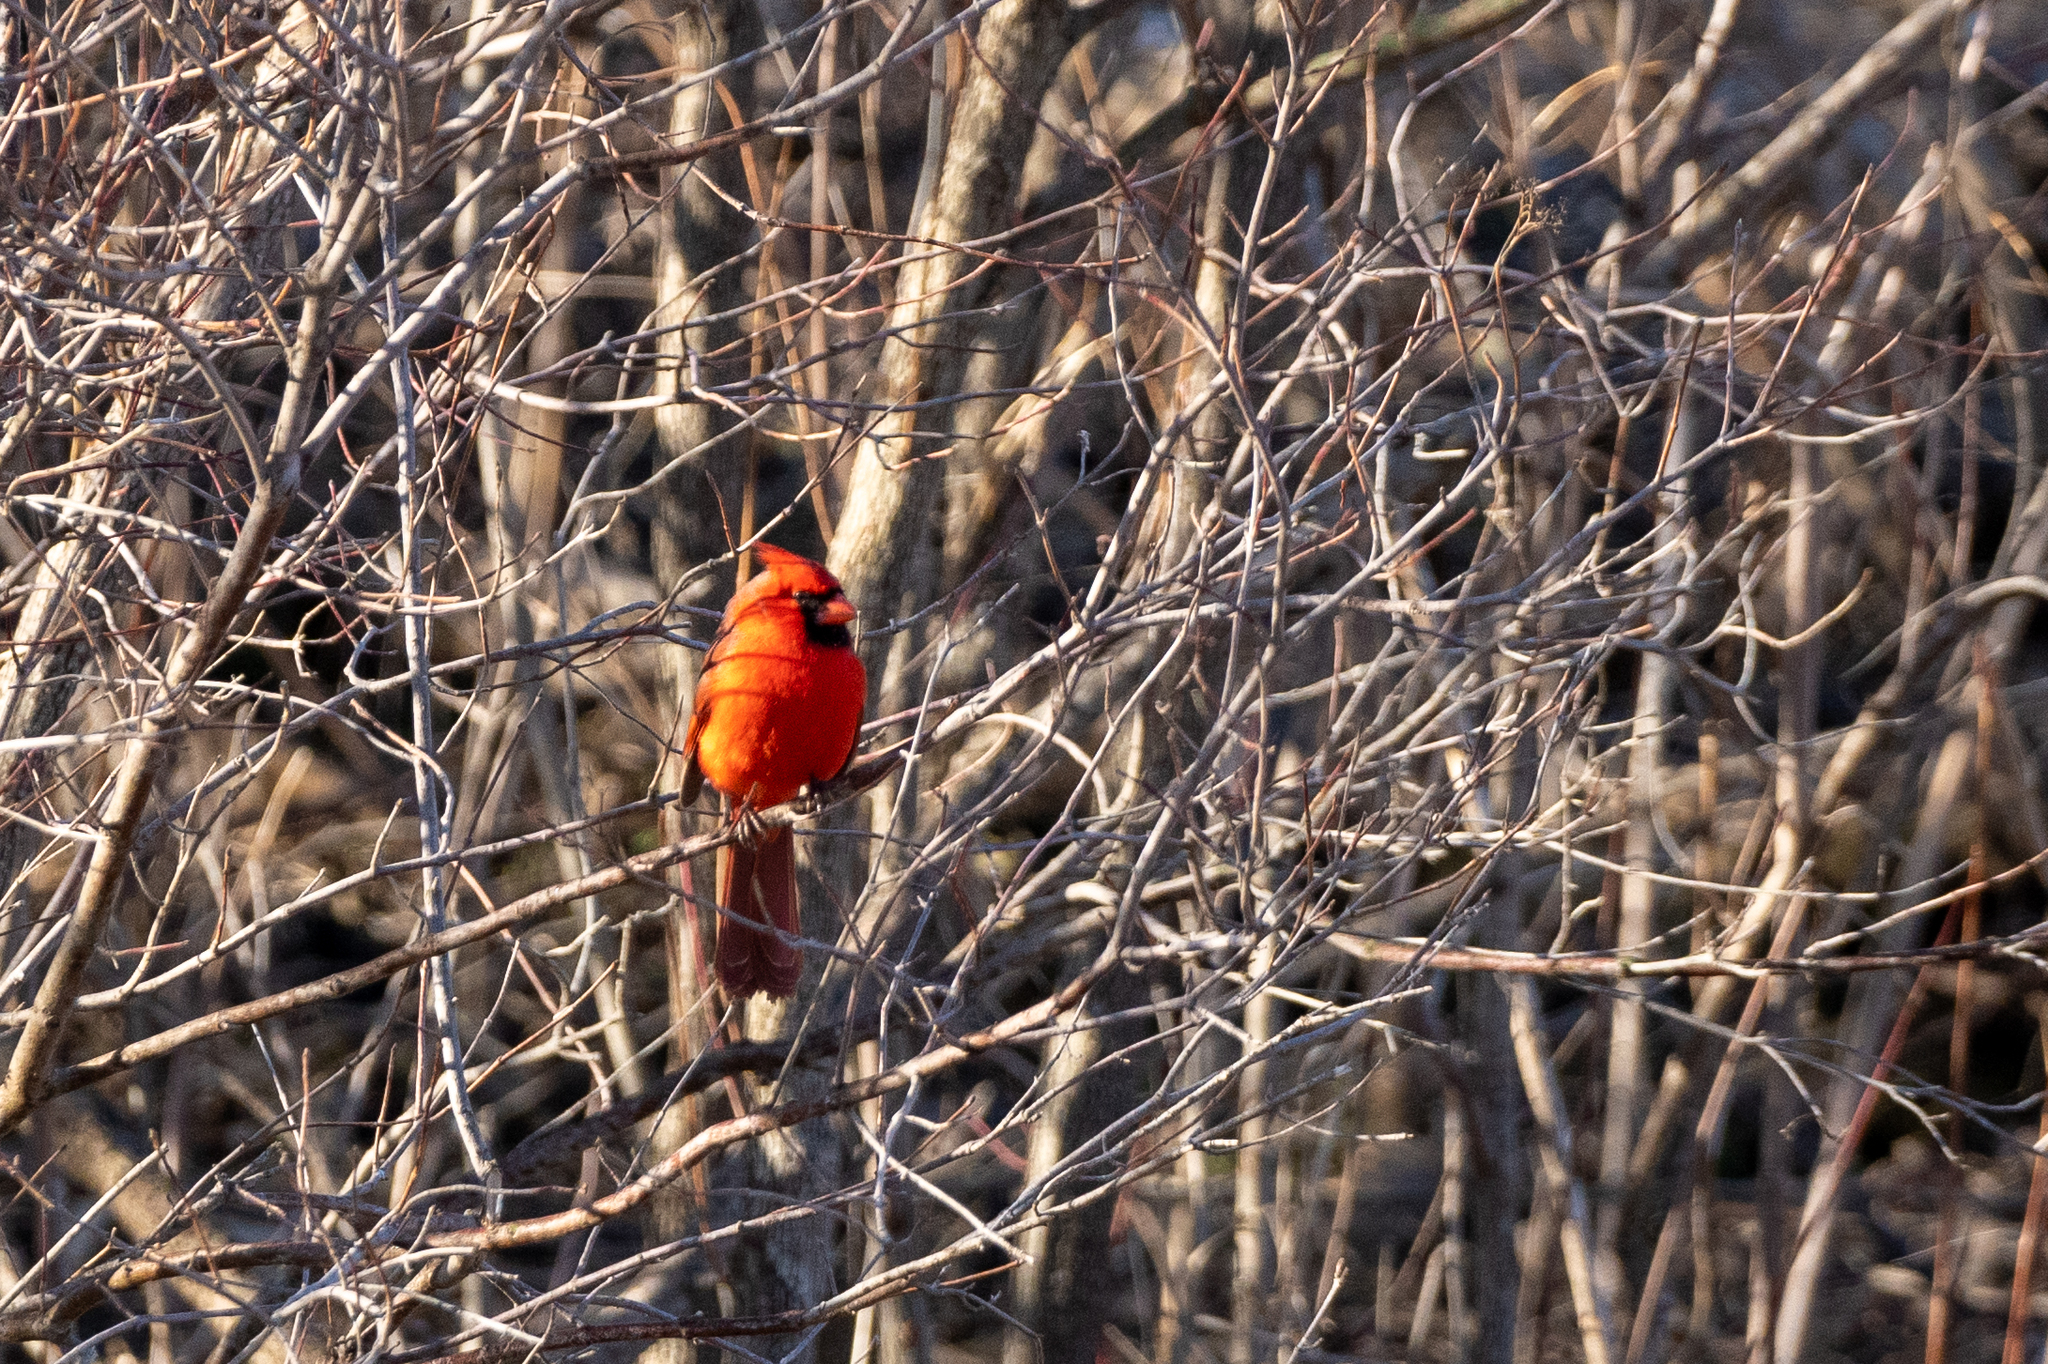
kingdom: Animalia
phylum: Chordata
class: Aves
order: Passeriformes
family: Cardinalidae
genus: Cardinalis
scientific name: Cardinalis cardinalis
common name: Northern cardinal
